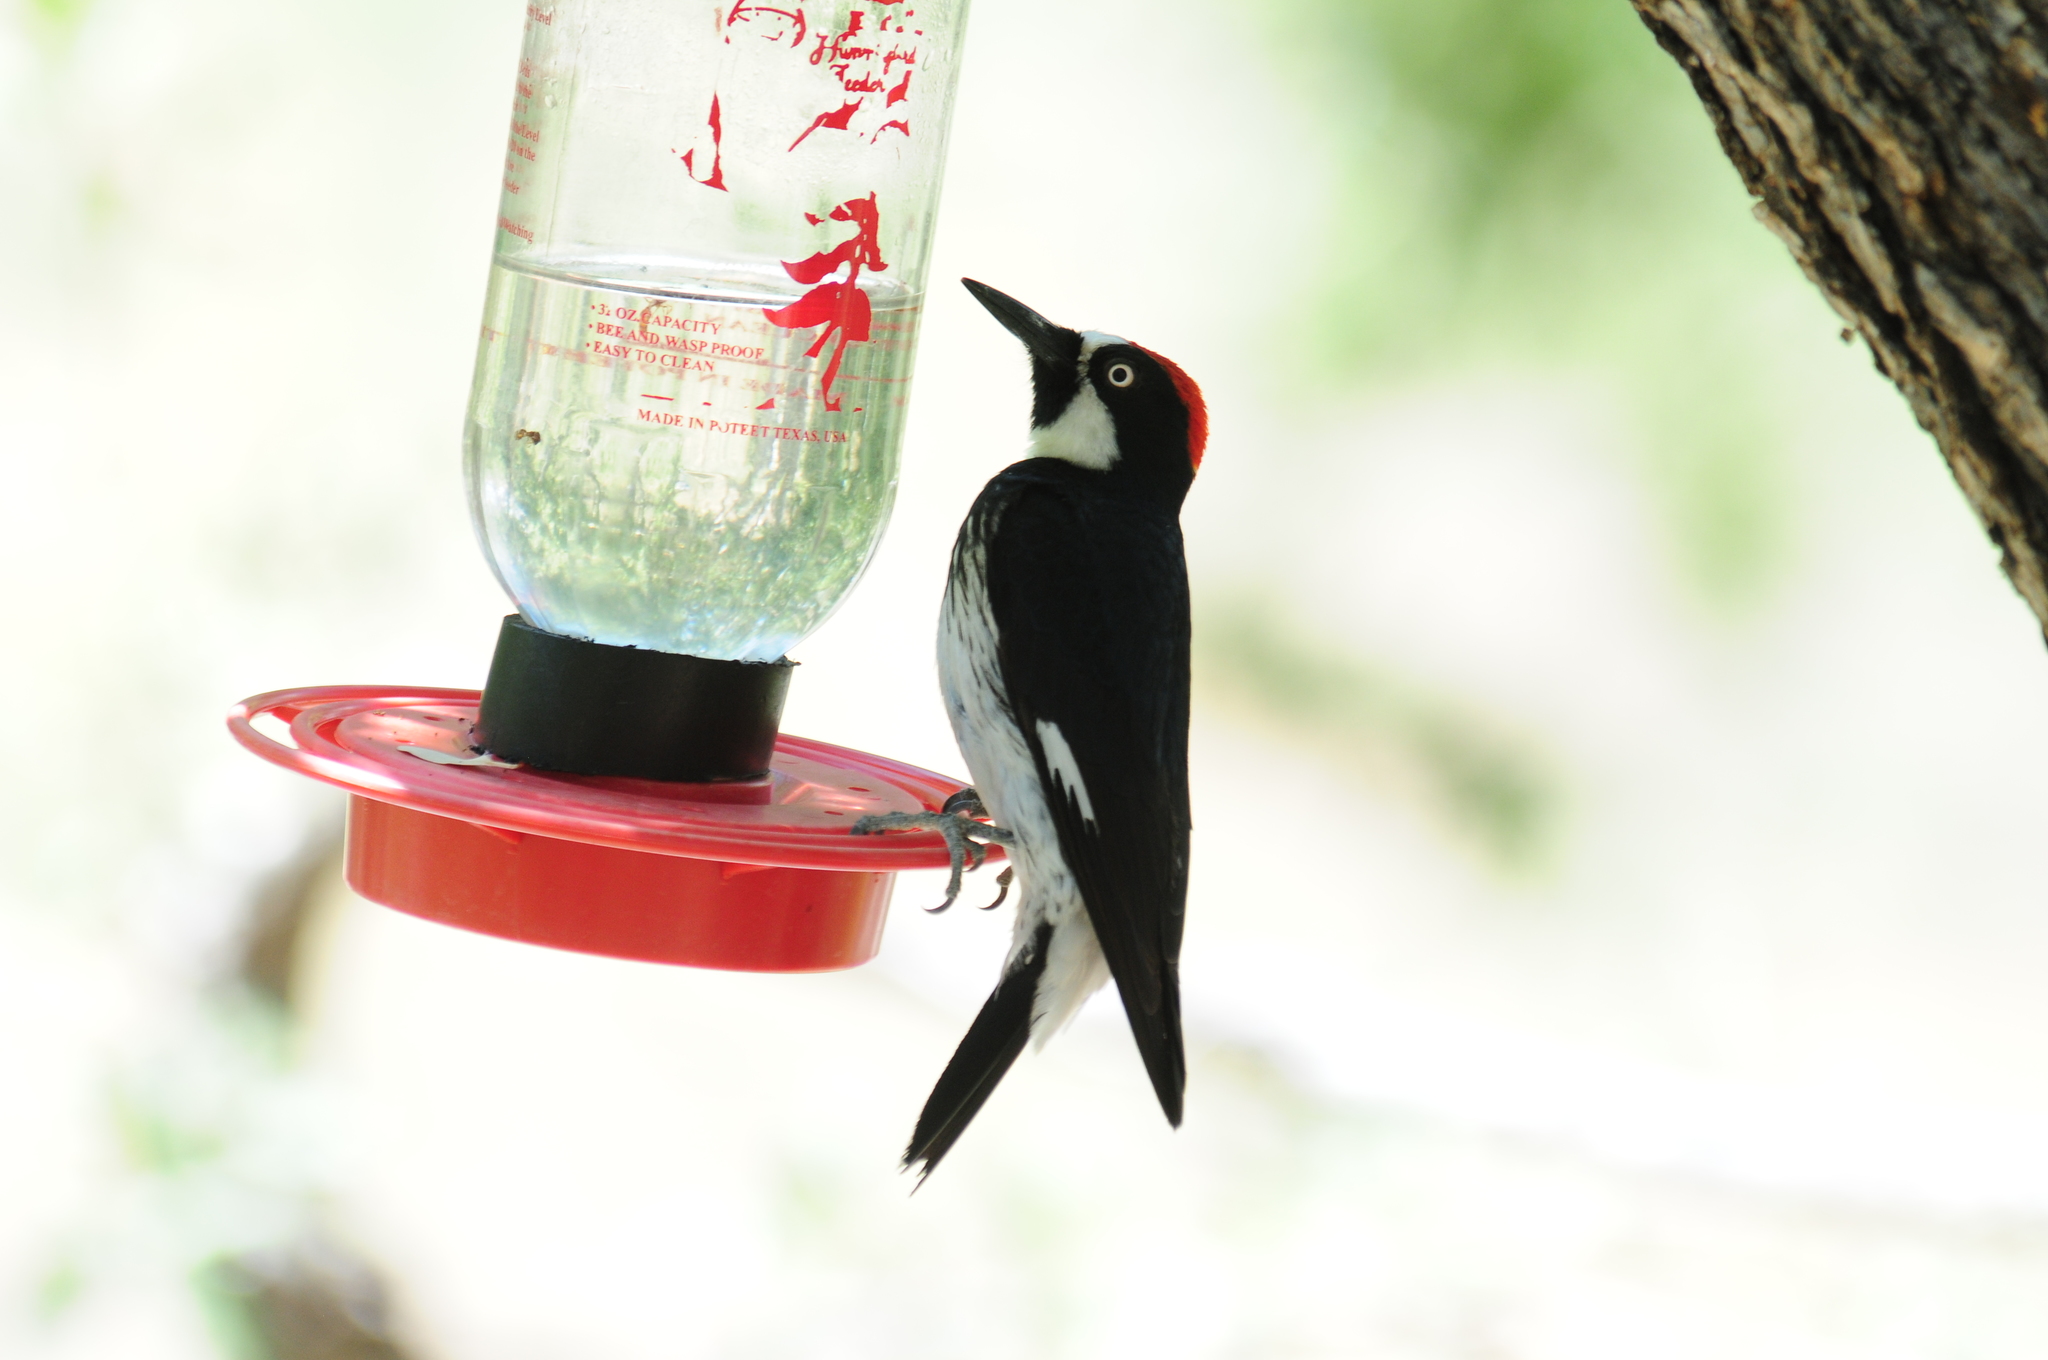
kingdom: Animalia
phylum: Chordata
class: Aves
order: Piciformes
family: Picidae
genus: Melanerpes
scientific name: Melanerpes formicivorus
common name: Acorn woodpecker
